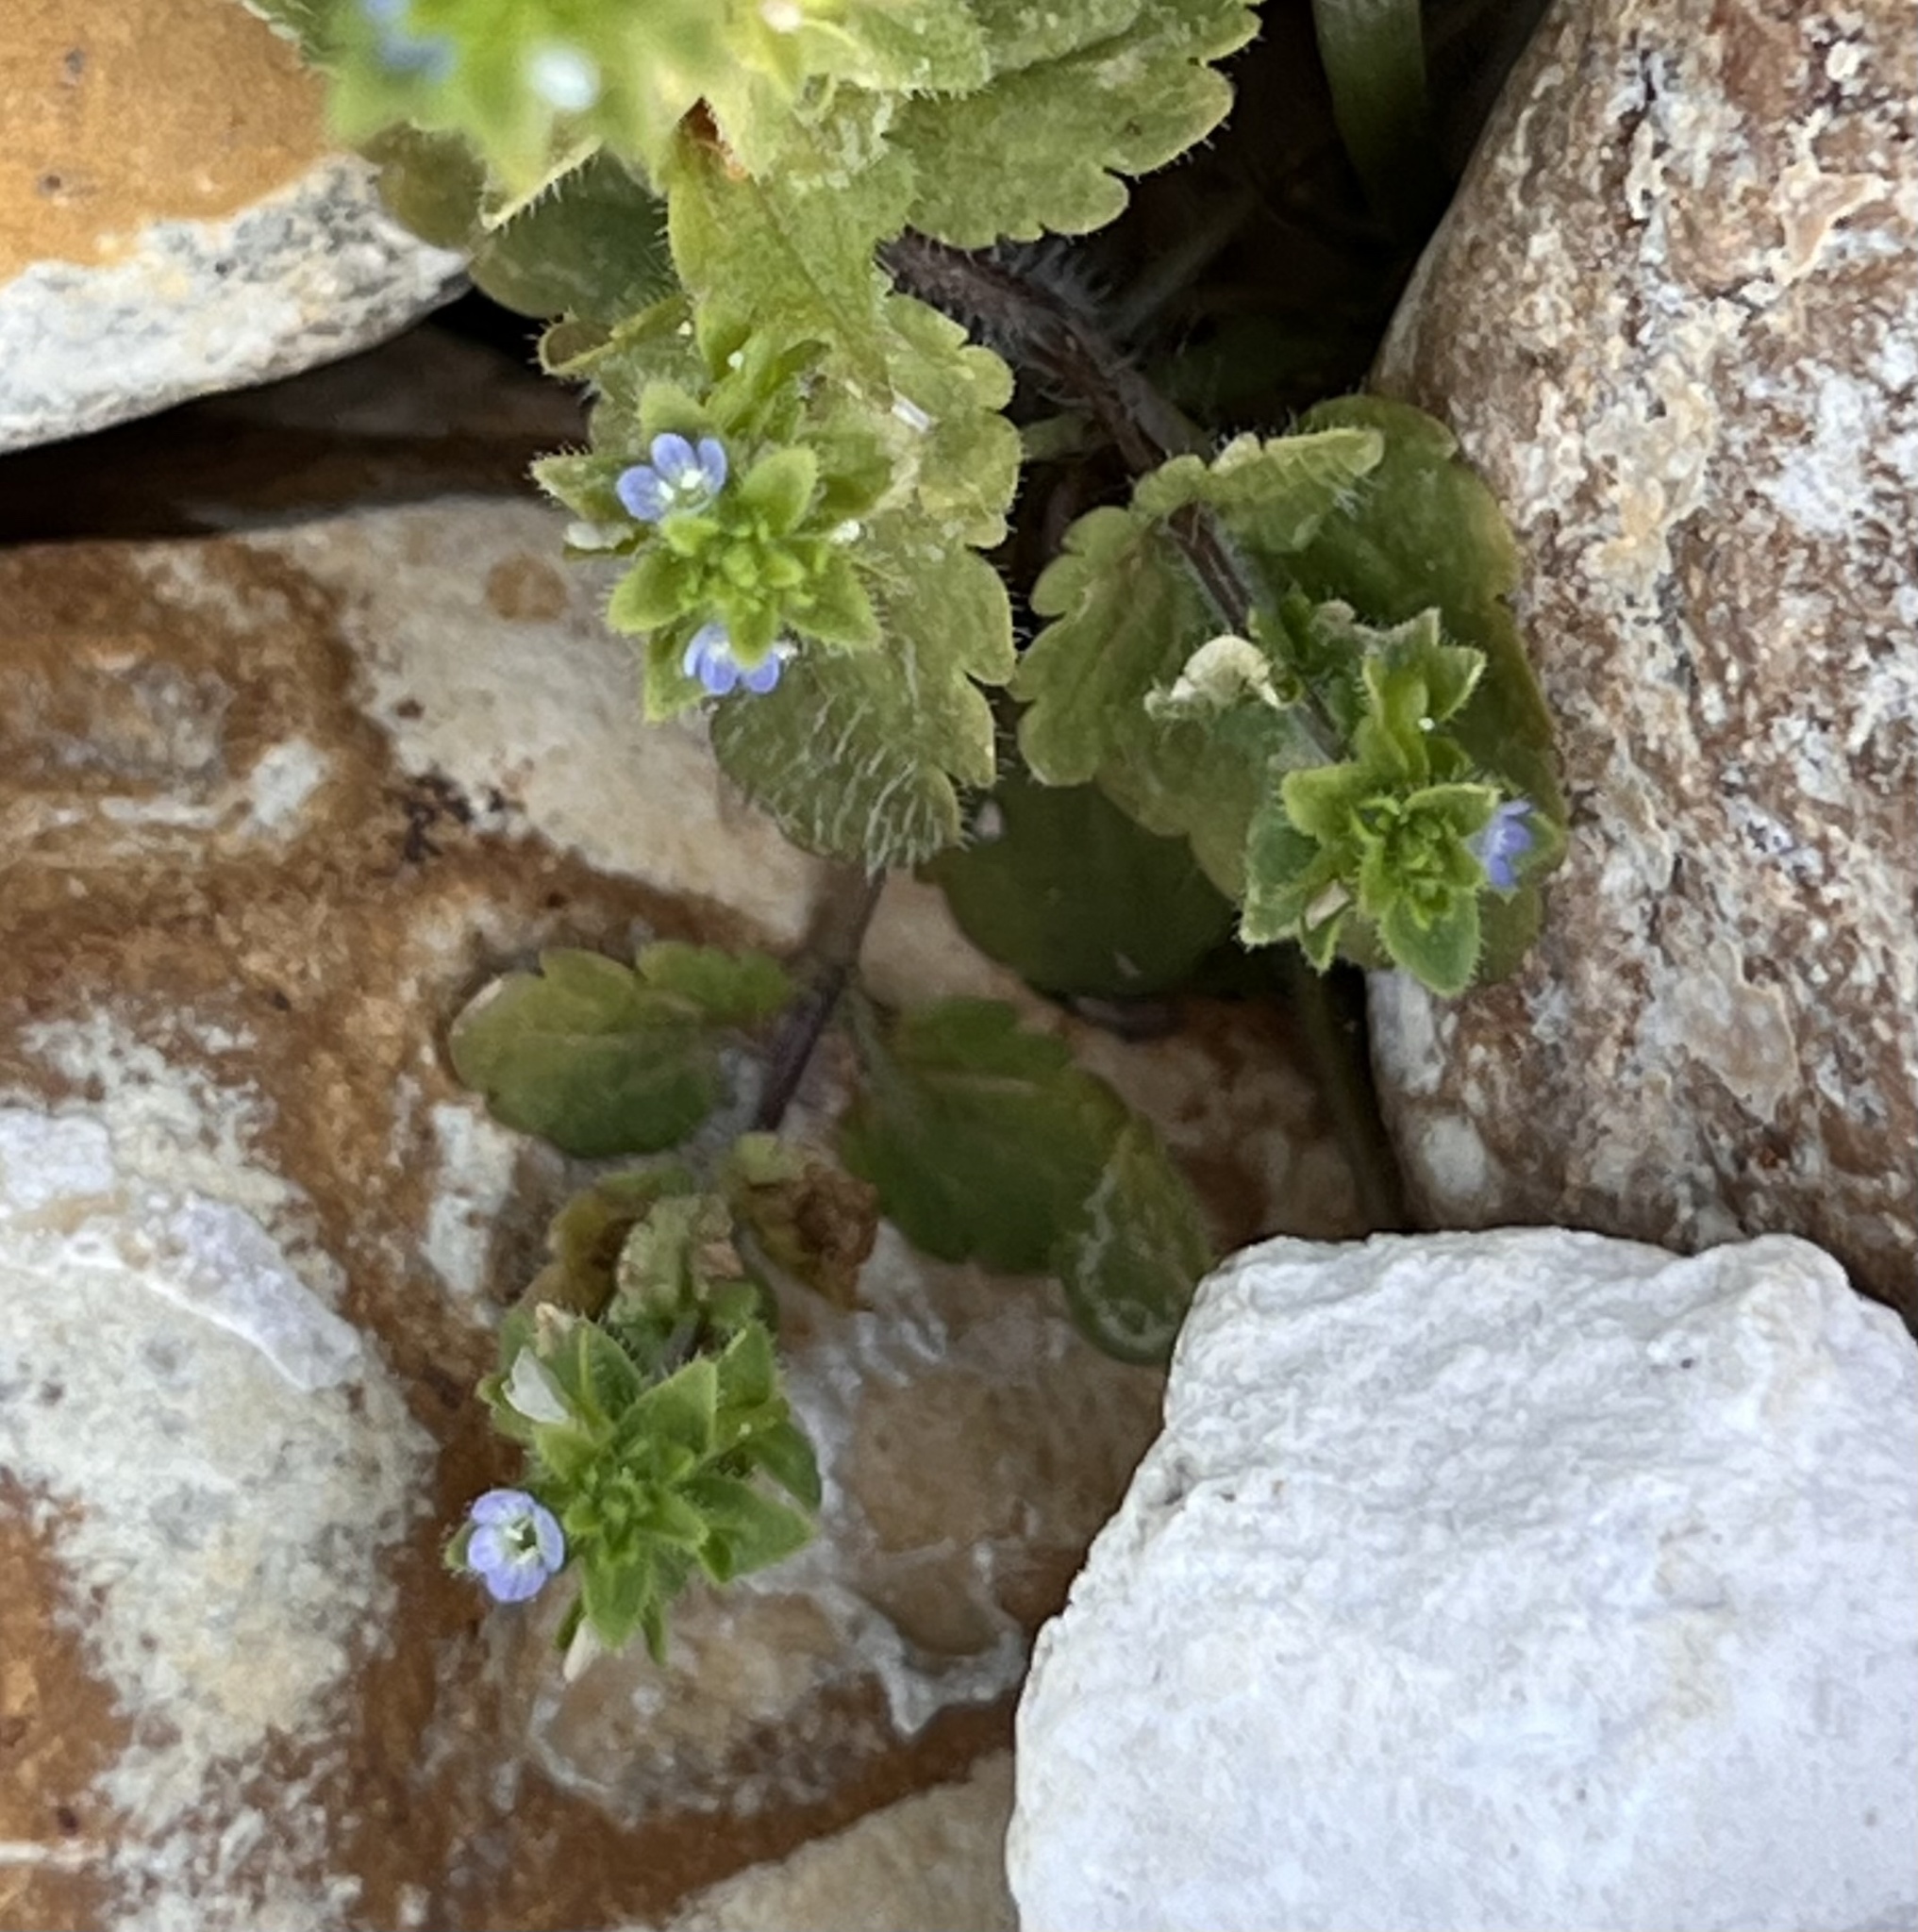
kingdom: Plantae
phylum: Tracheophyta
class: Magnoliopsida
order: Lamiales
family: Plantaginaceae
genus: Veronica
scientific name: Veronica arvensis
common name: Corn speedwell
